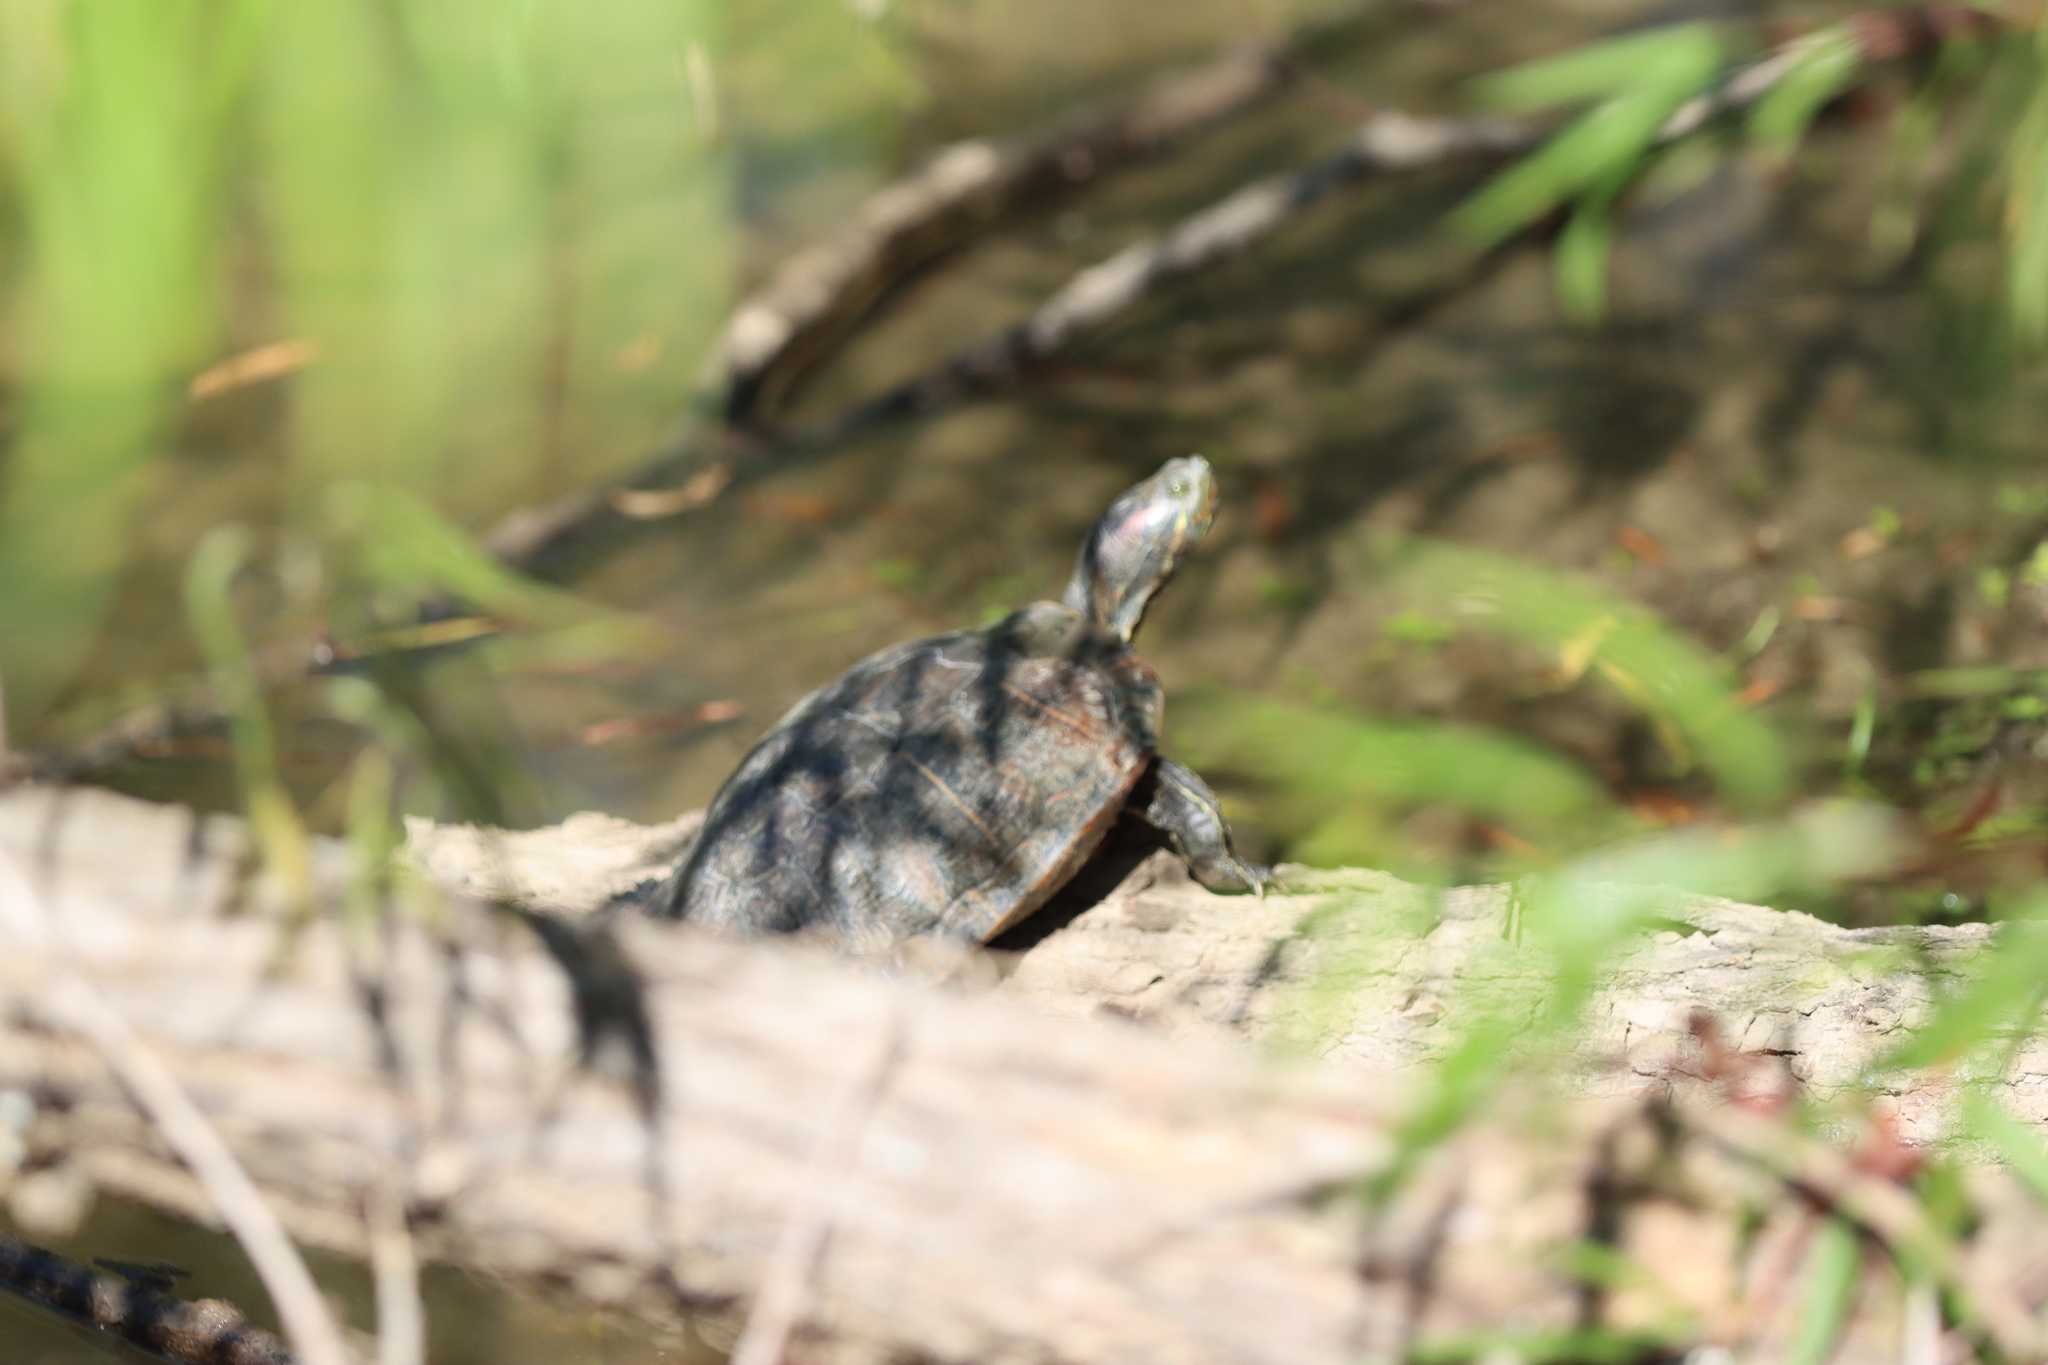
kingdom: Animalia
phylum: Chordata
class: Testudines
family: Emydidae
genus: Trachemys
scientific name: Trachemys scripta
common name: Slider
